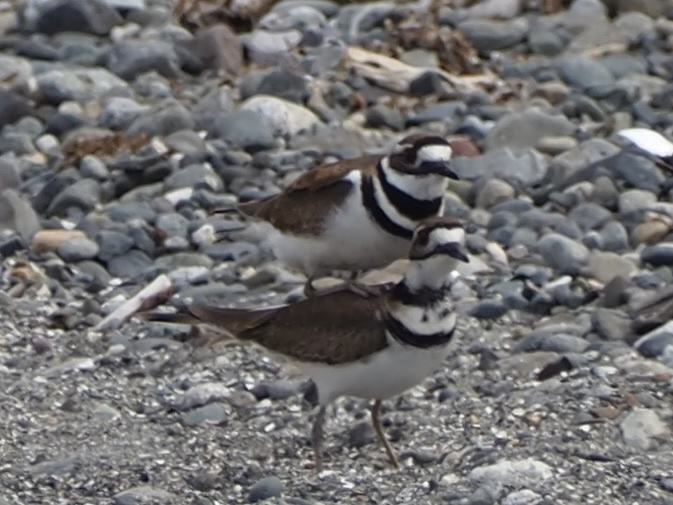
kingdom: Animalia
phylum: Chordata
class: Aves
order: Charadriiformes
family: Charadriidae
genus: Charadrius
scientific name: Charadrius vociferus
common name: Killdeer
